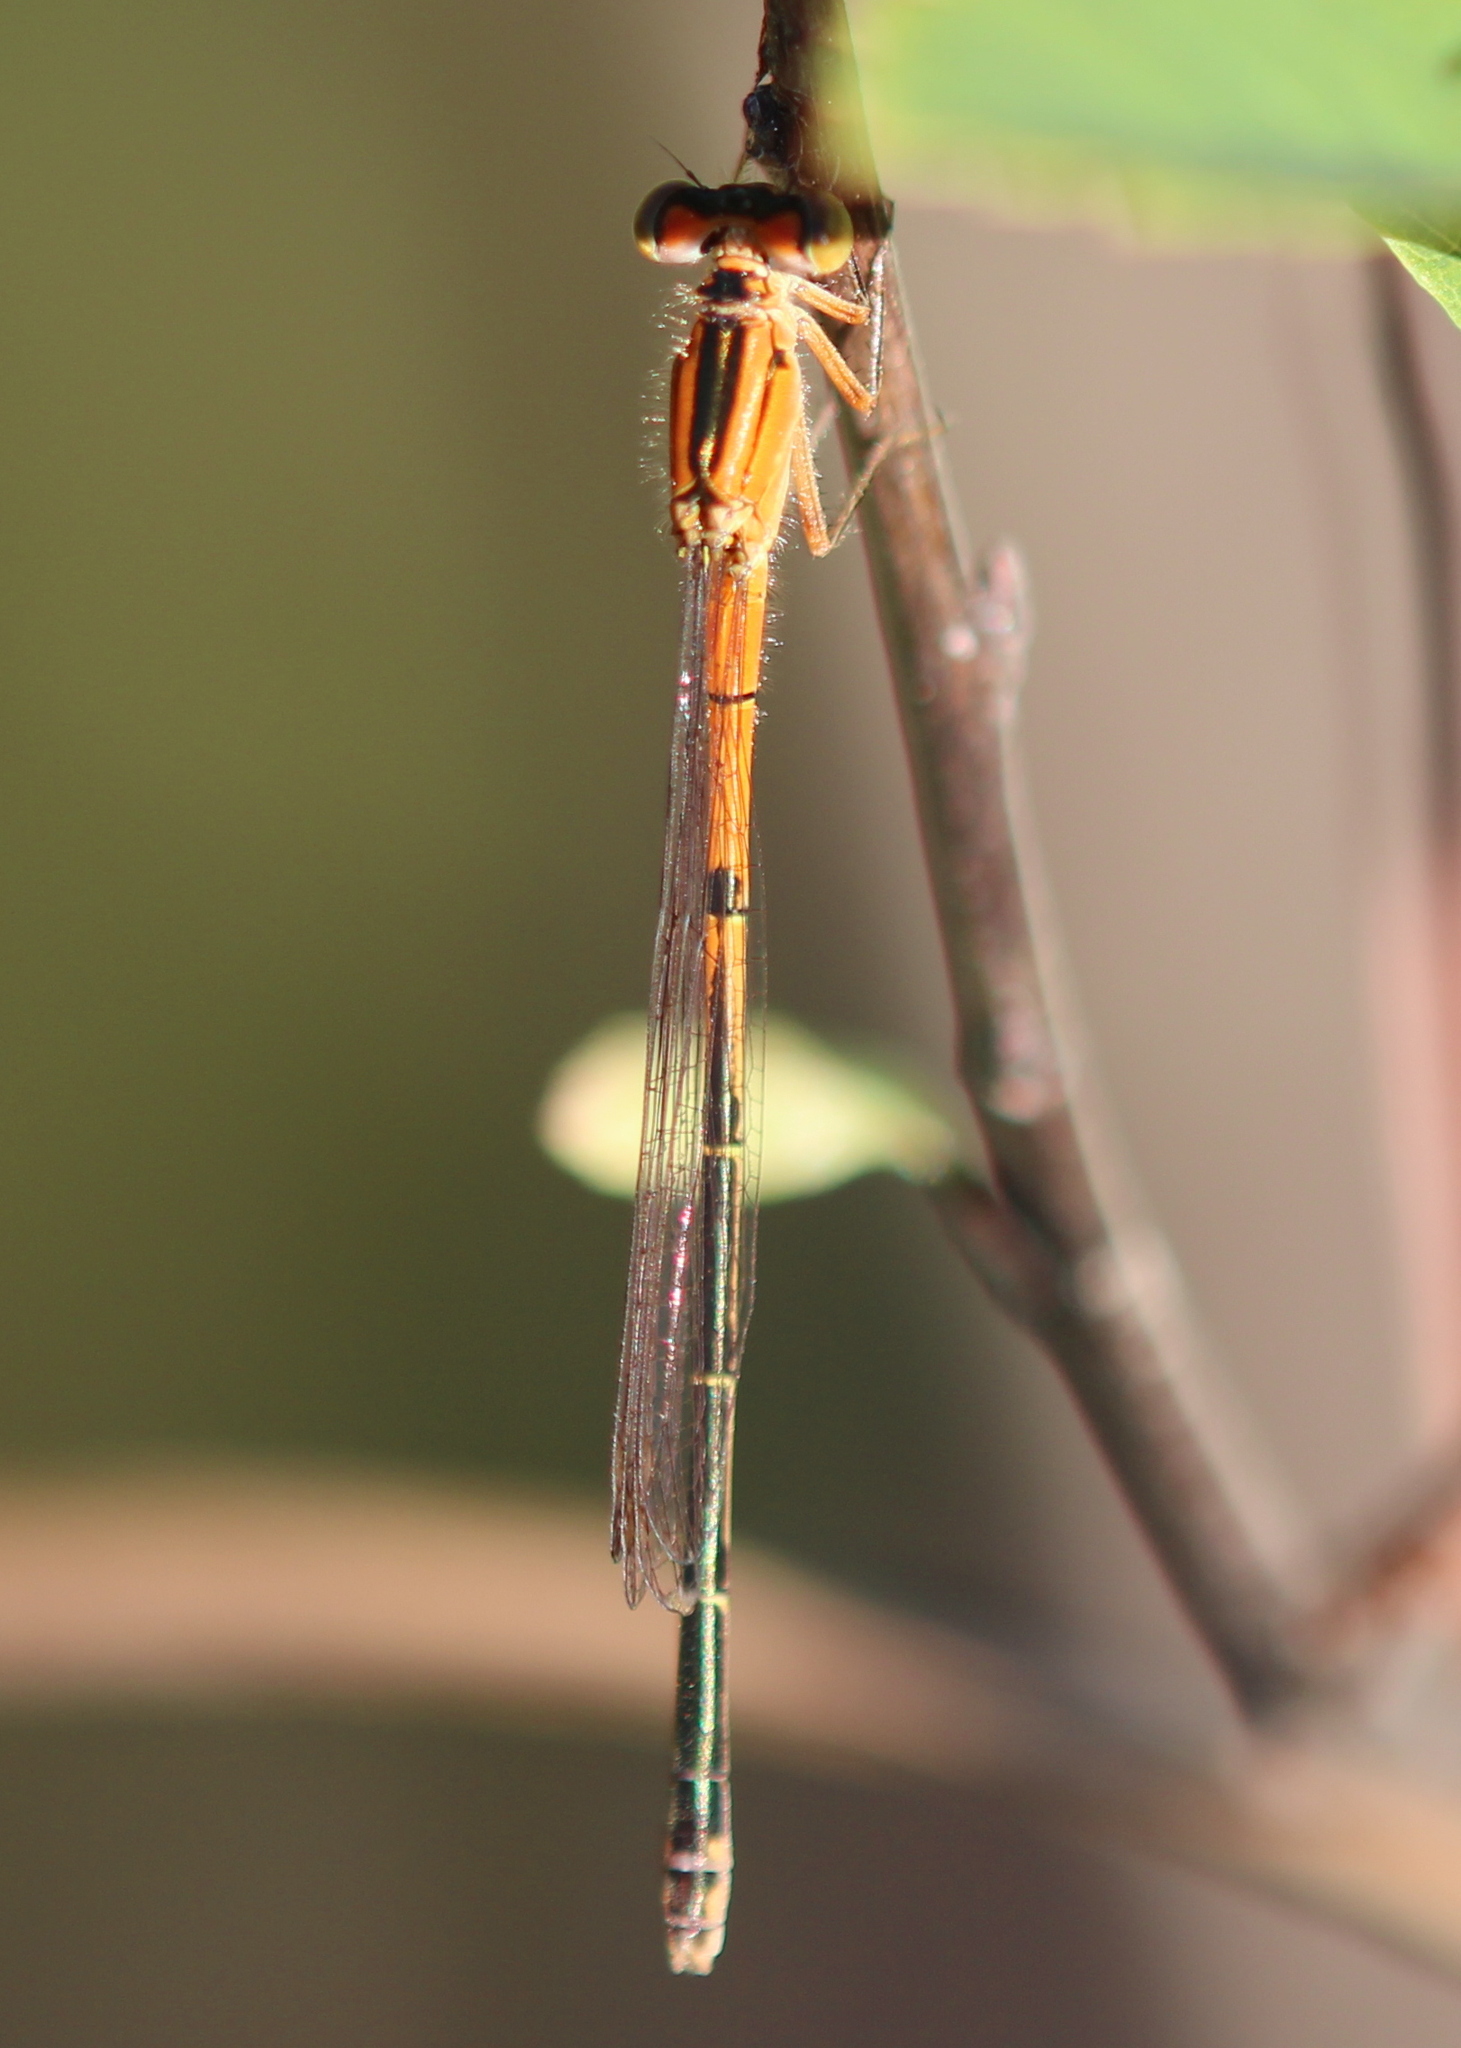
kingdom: Animalia
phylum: Arthropoda
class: Insecta
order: Odonata
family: Coenagrionidae
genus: Ischnura
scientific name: Ischnura verticalis
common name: Eastern forktail
